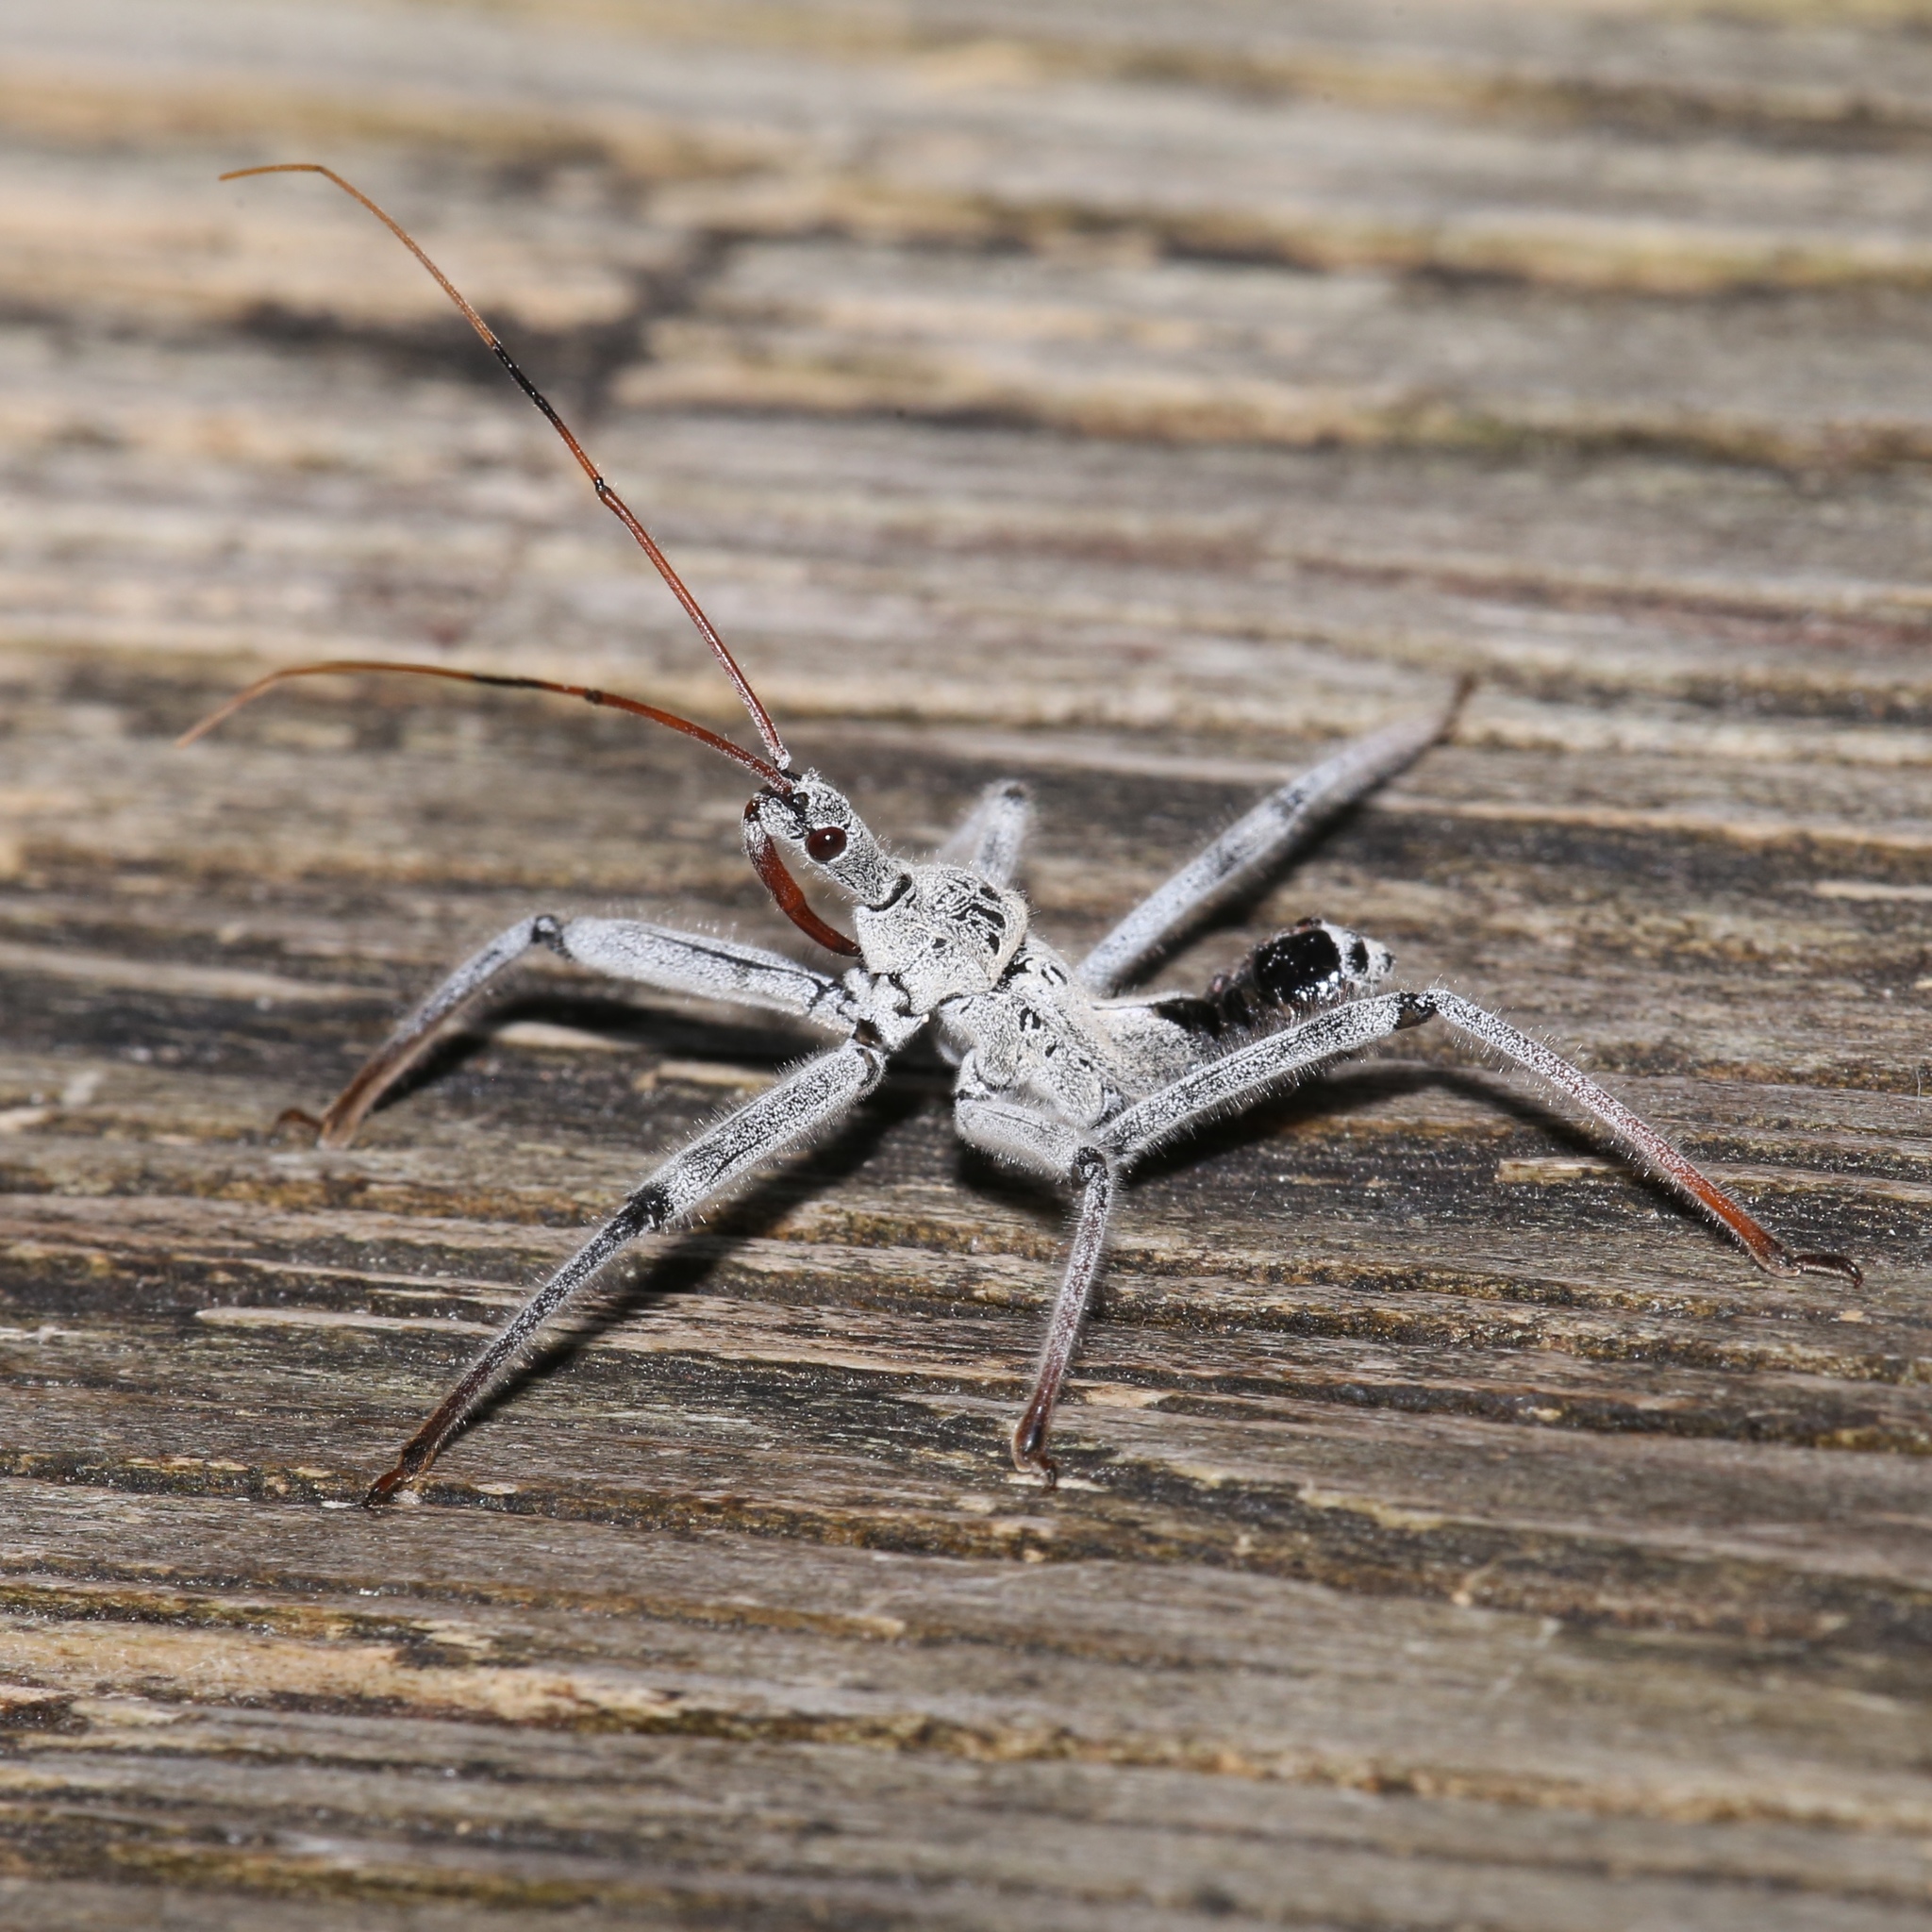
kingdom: Animalia
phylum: Arthropoda
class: Insecta
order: Hemiptera
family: Reduviidae
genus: Arilus
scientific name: Arilus cristatus
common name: North american wheel bug
